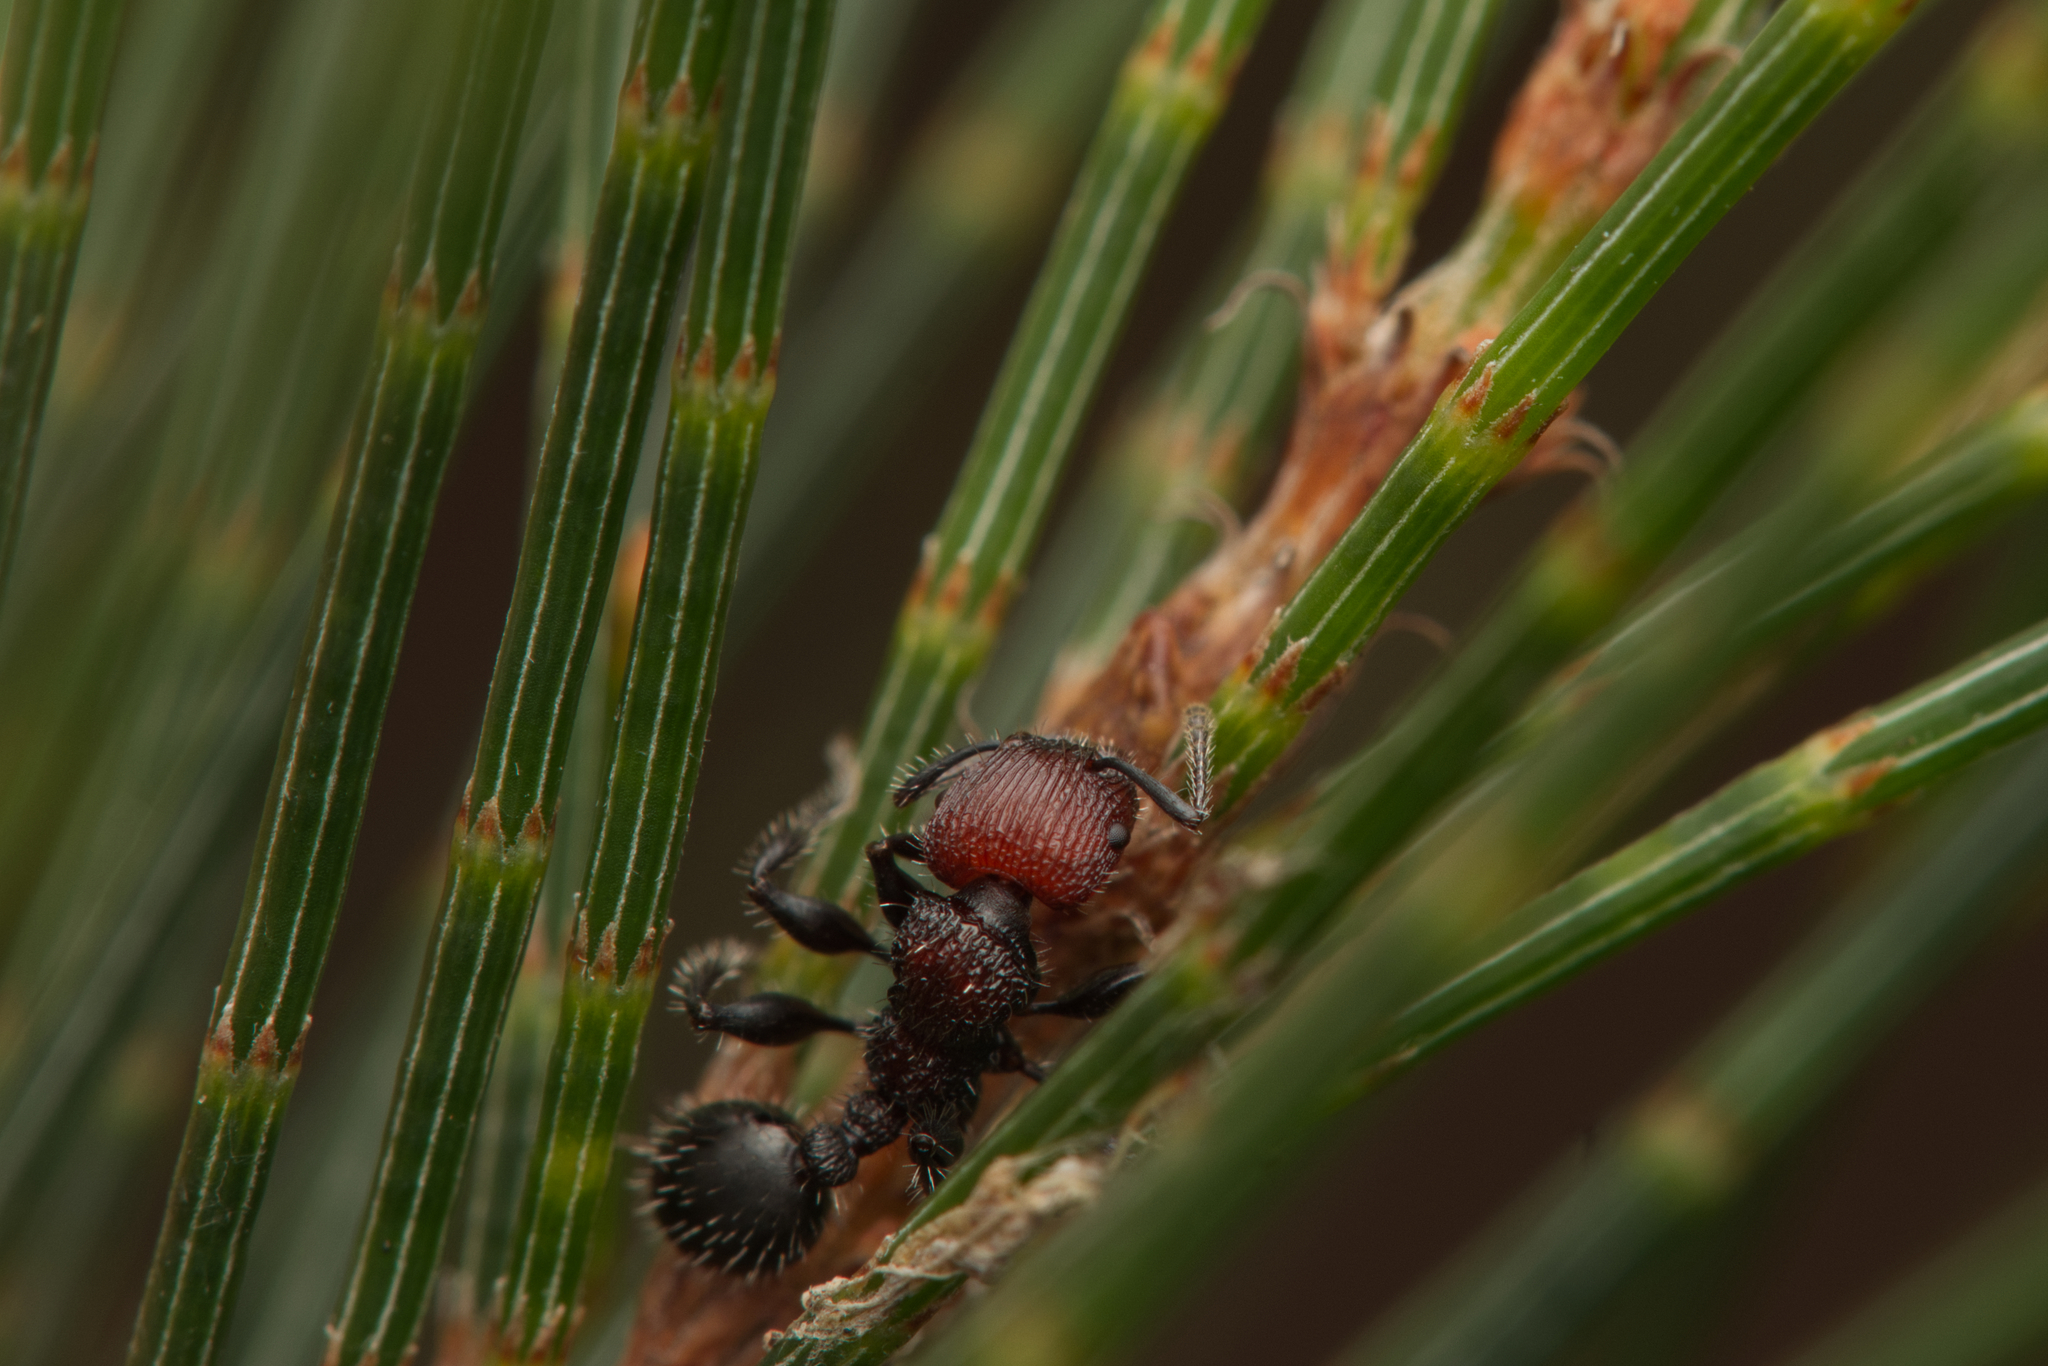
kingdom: Animalia
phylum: Arthropoda
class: Insecta
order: Hymenoptera
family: Formicidae
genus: Podomyrma
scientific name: Podomyrma micans
